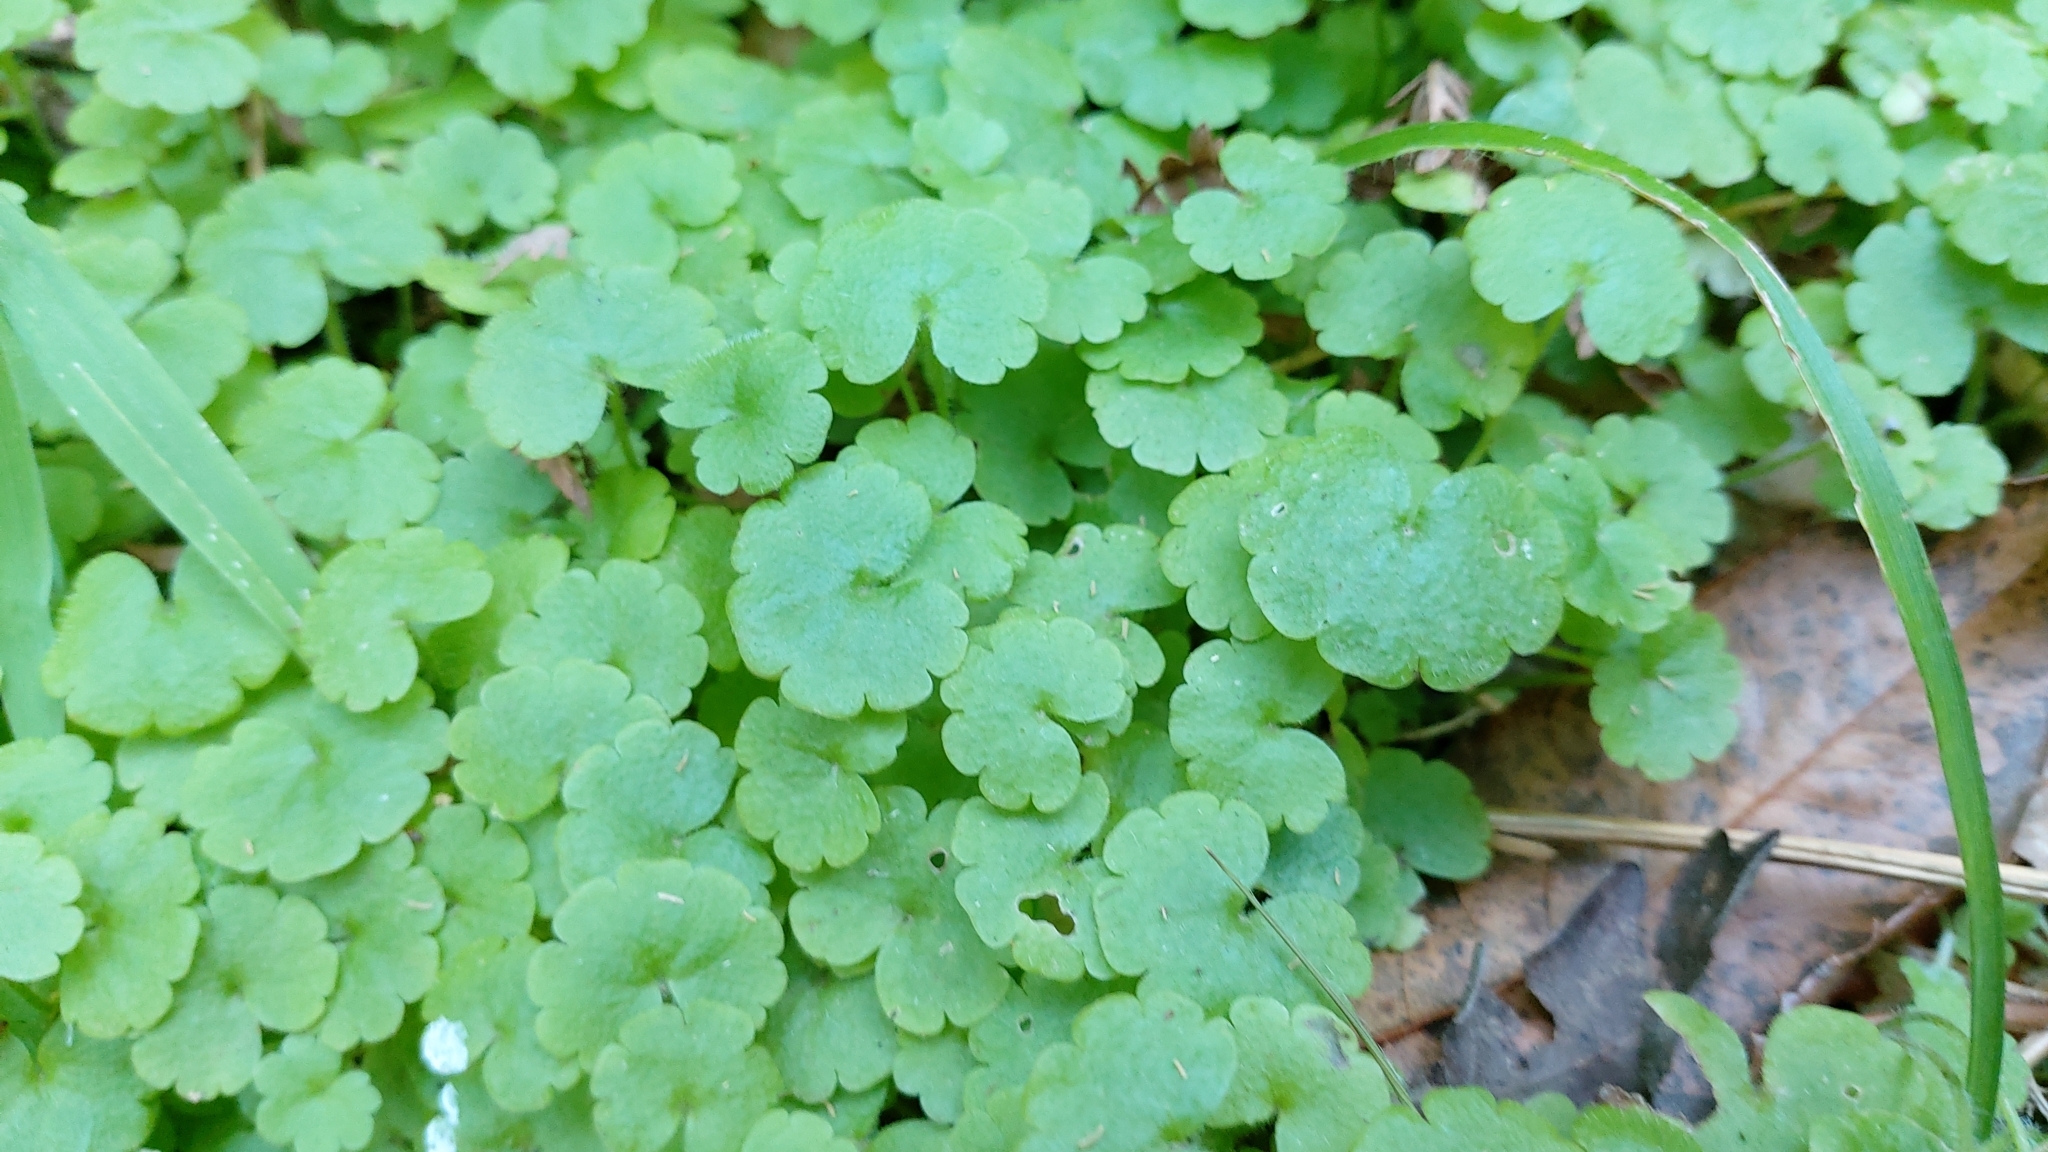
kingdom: Plantae
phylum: Tracheophyta
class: Magnoliopsida
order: Lamiales
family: Plantaginaceae
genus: Sibthorpia
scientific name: Sibthorpia europaea
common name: Cornish moneywort
